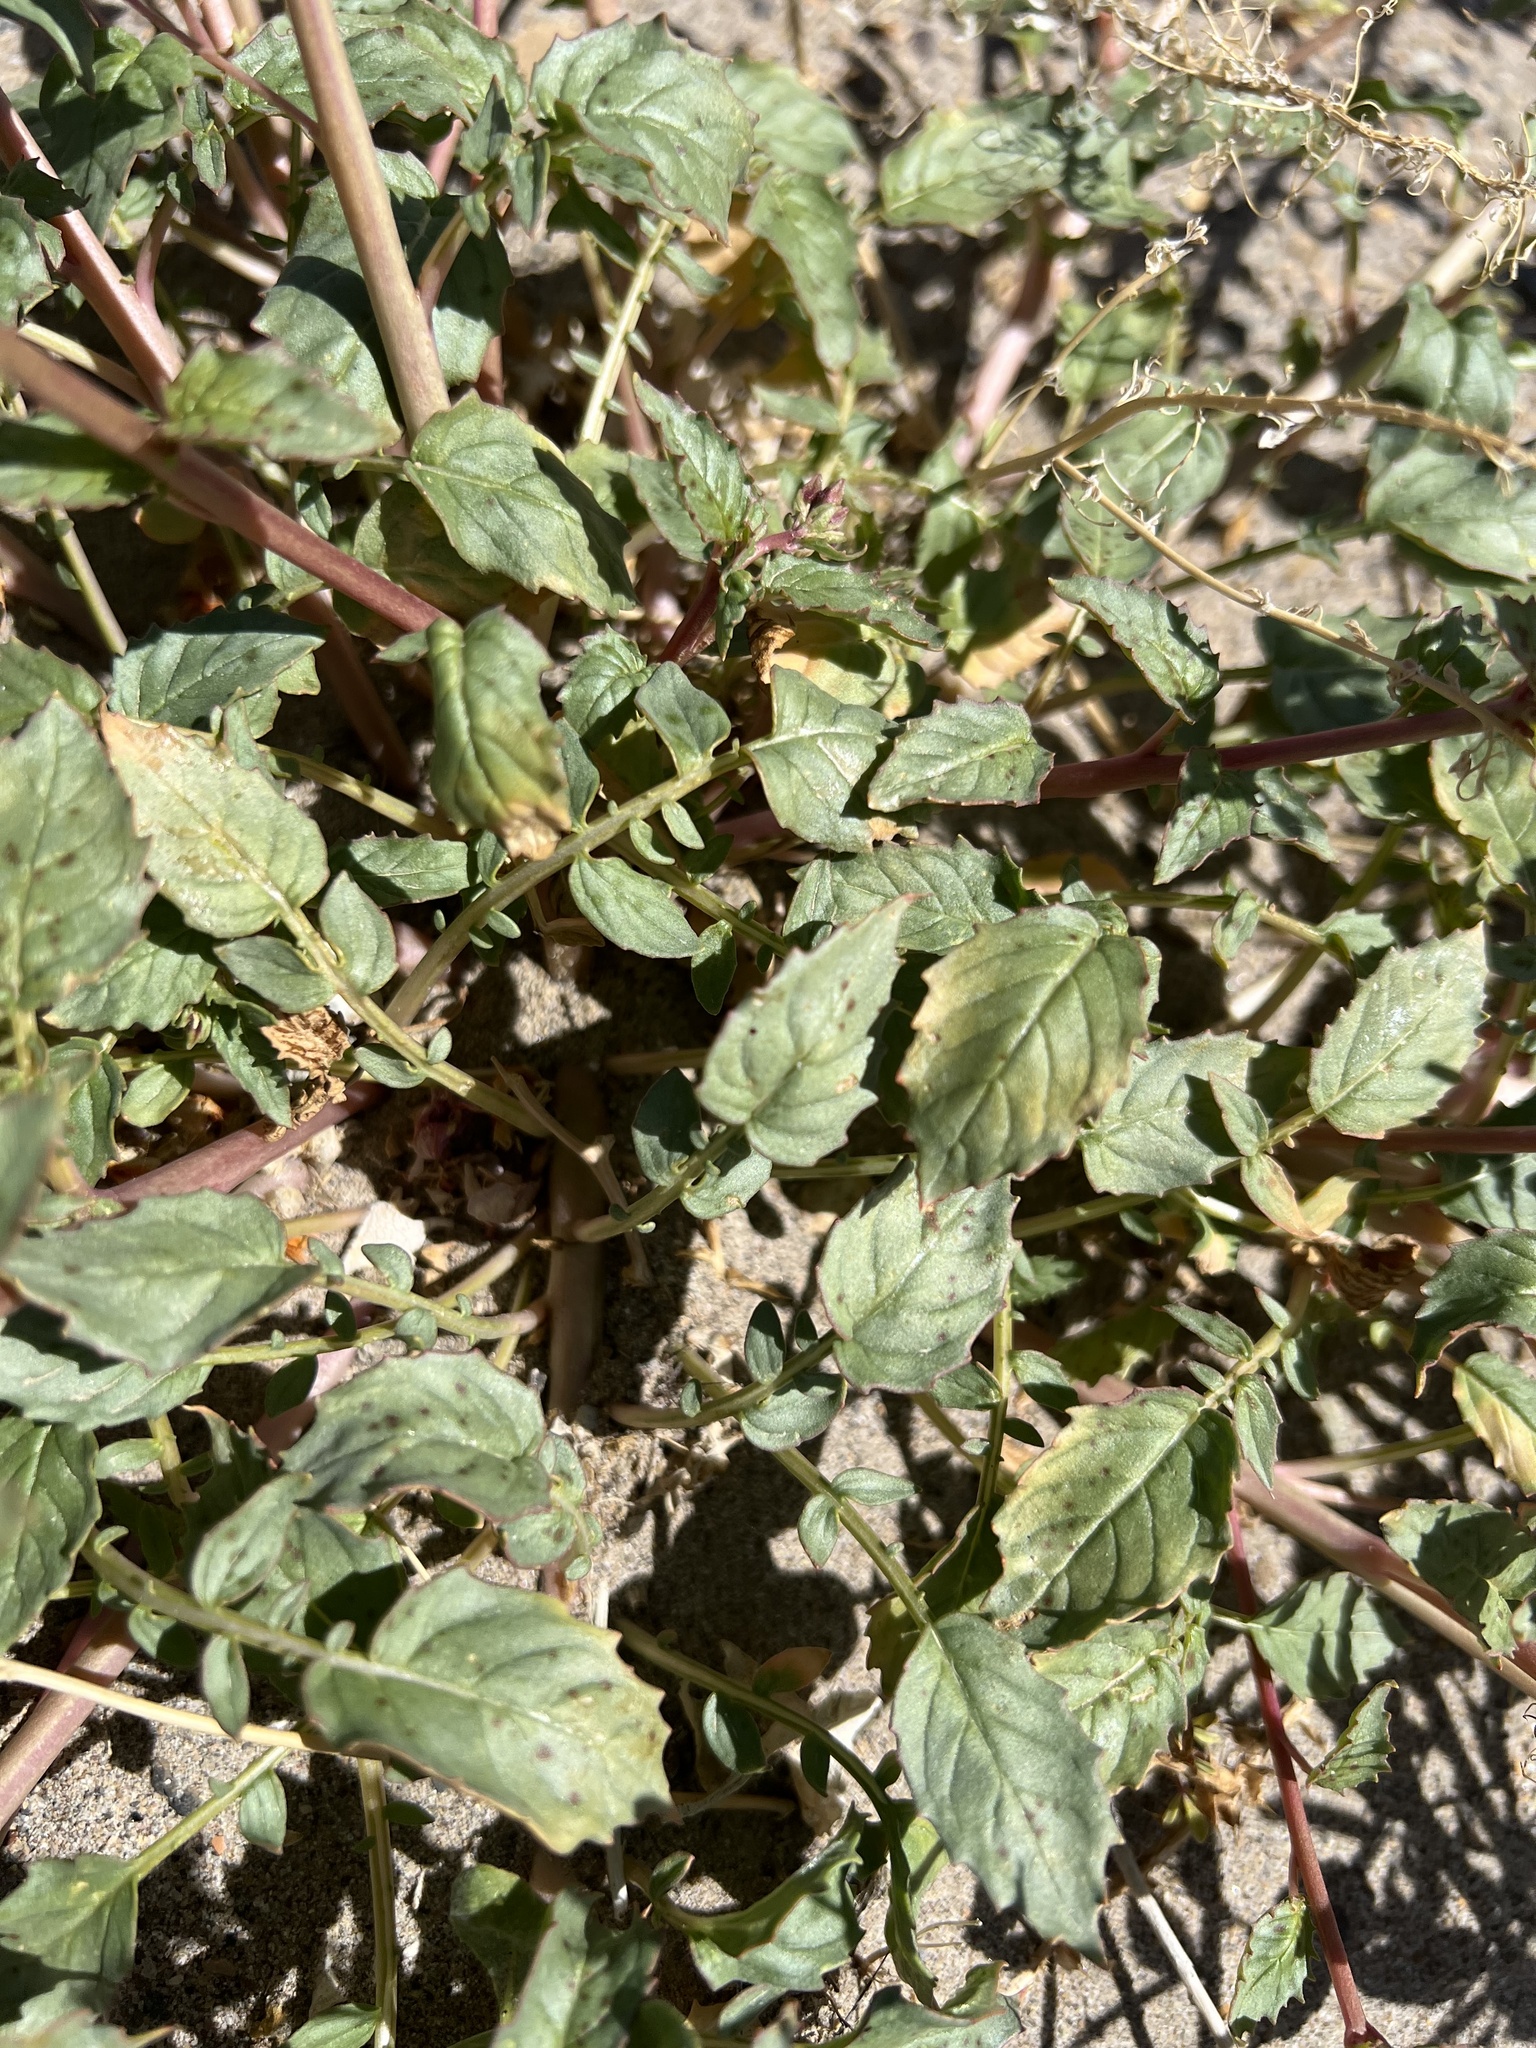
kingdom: Plantae
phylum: Tracheophyta
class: Magnoliopsida
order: Myrtales
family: Onagraceae
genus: Chylismia
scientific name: Chylismia claviformis
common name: Browneyes
